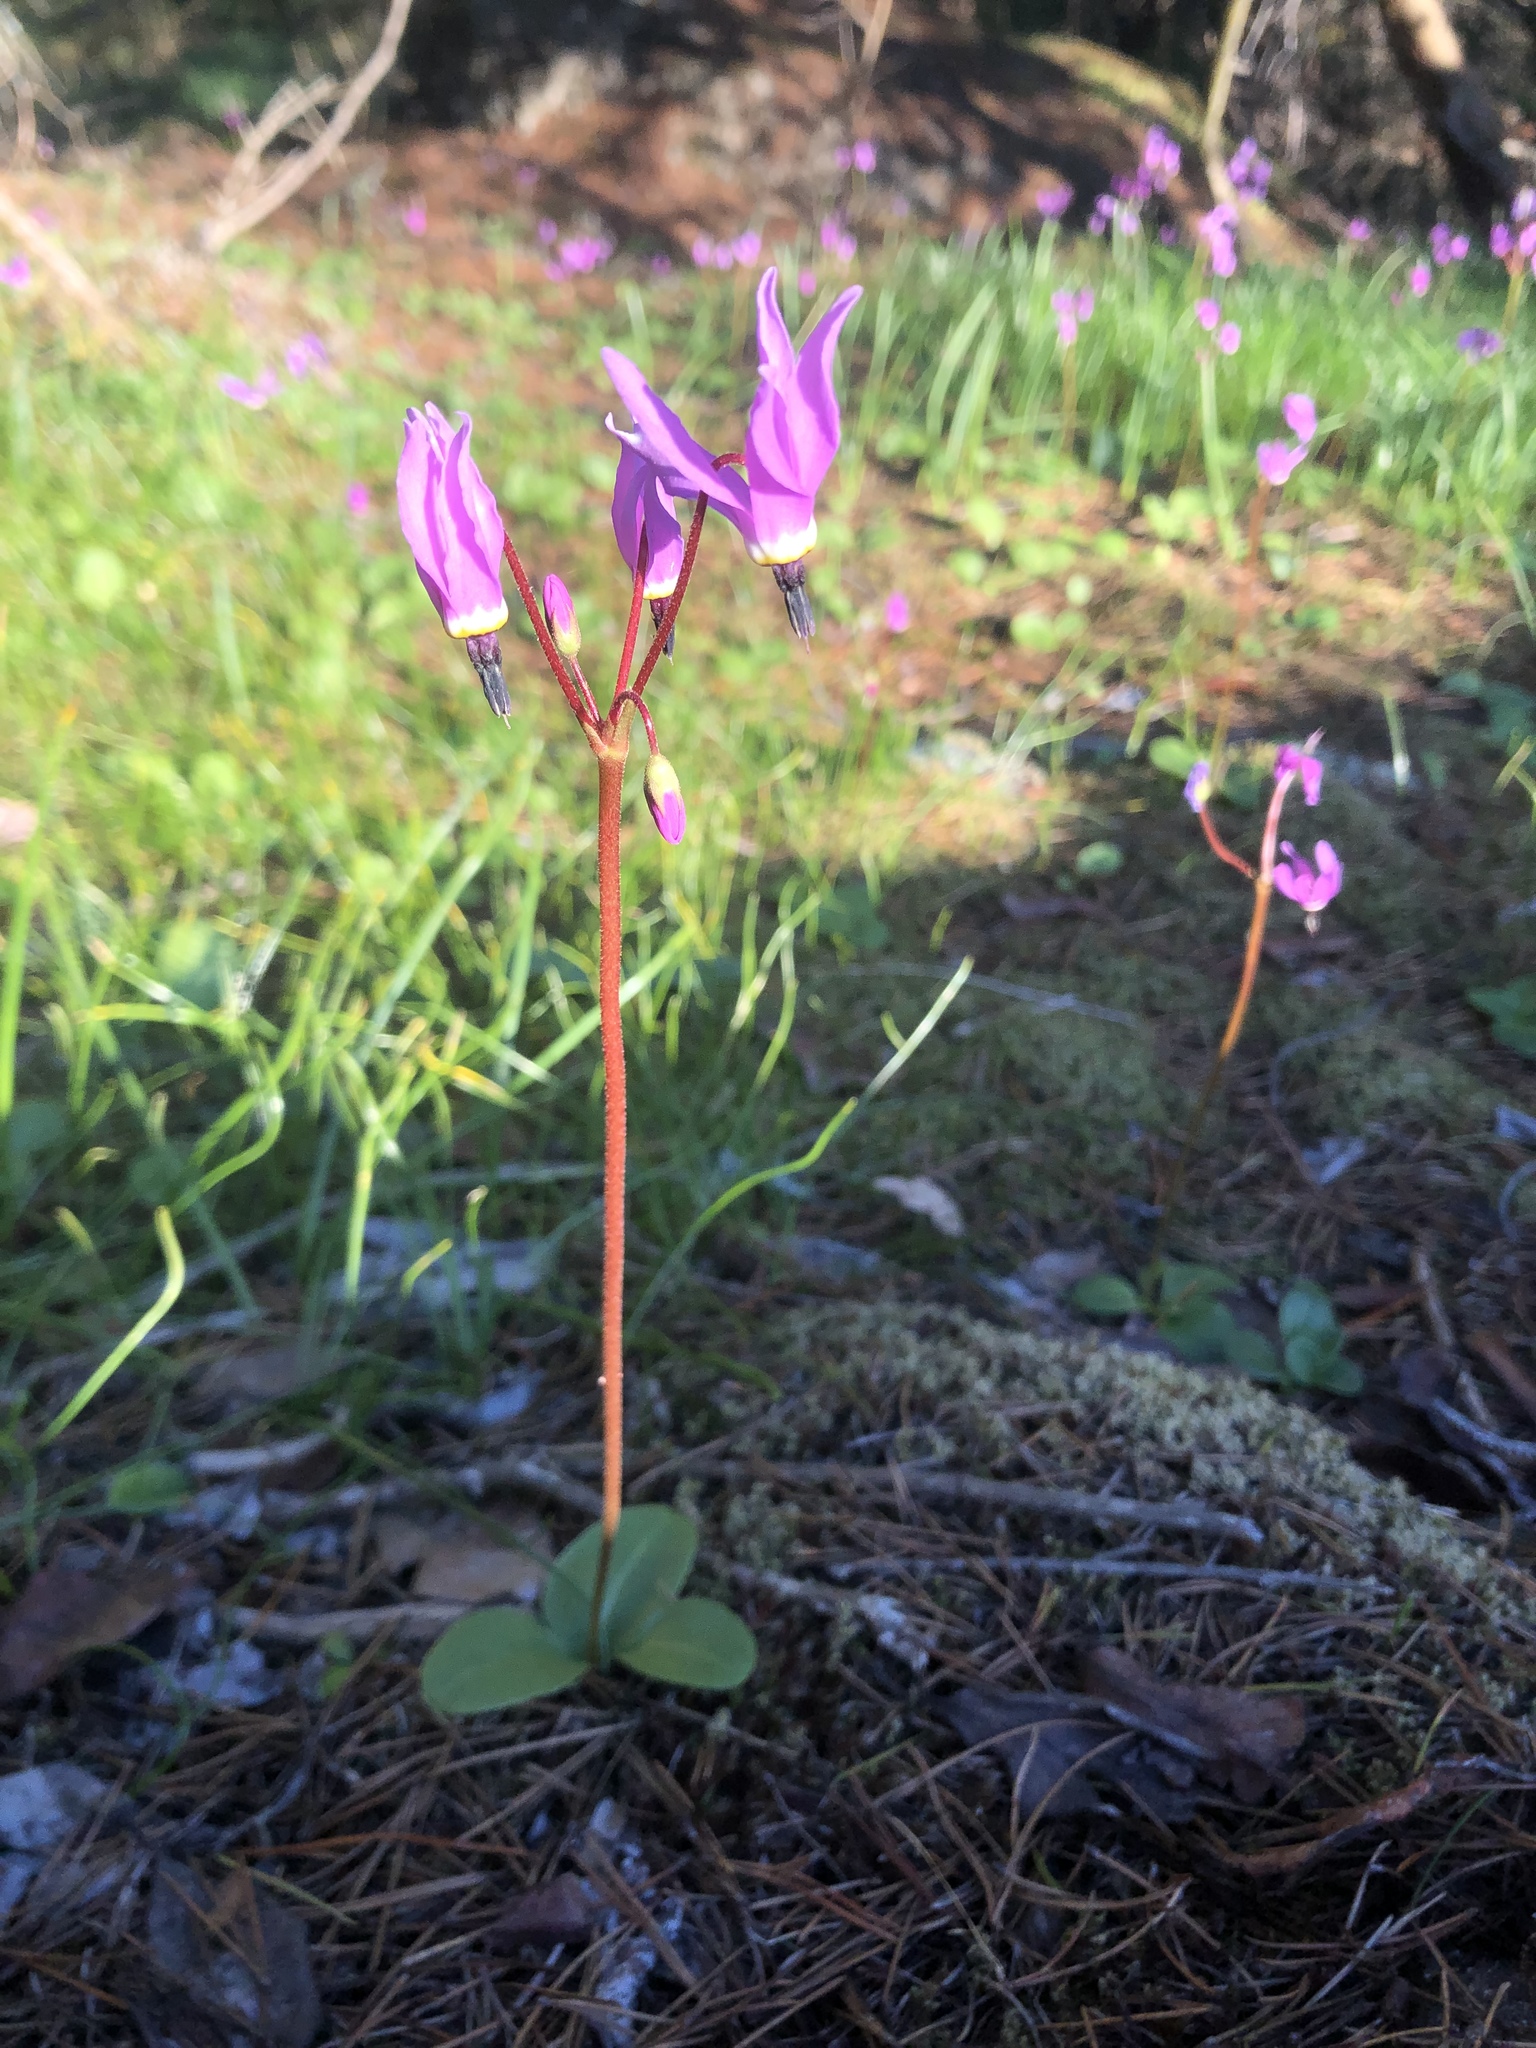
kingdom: Plantae
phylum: Tracheophyta
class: Magnoliopsida
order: Ericales
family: Primulaceae
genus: Dodecatheon
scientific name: Dodecatheon hendersonii
